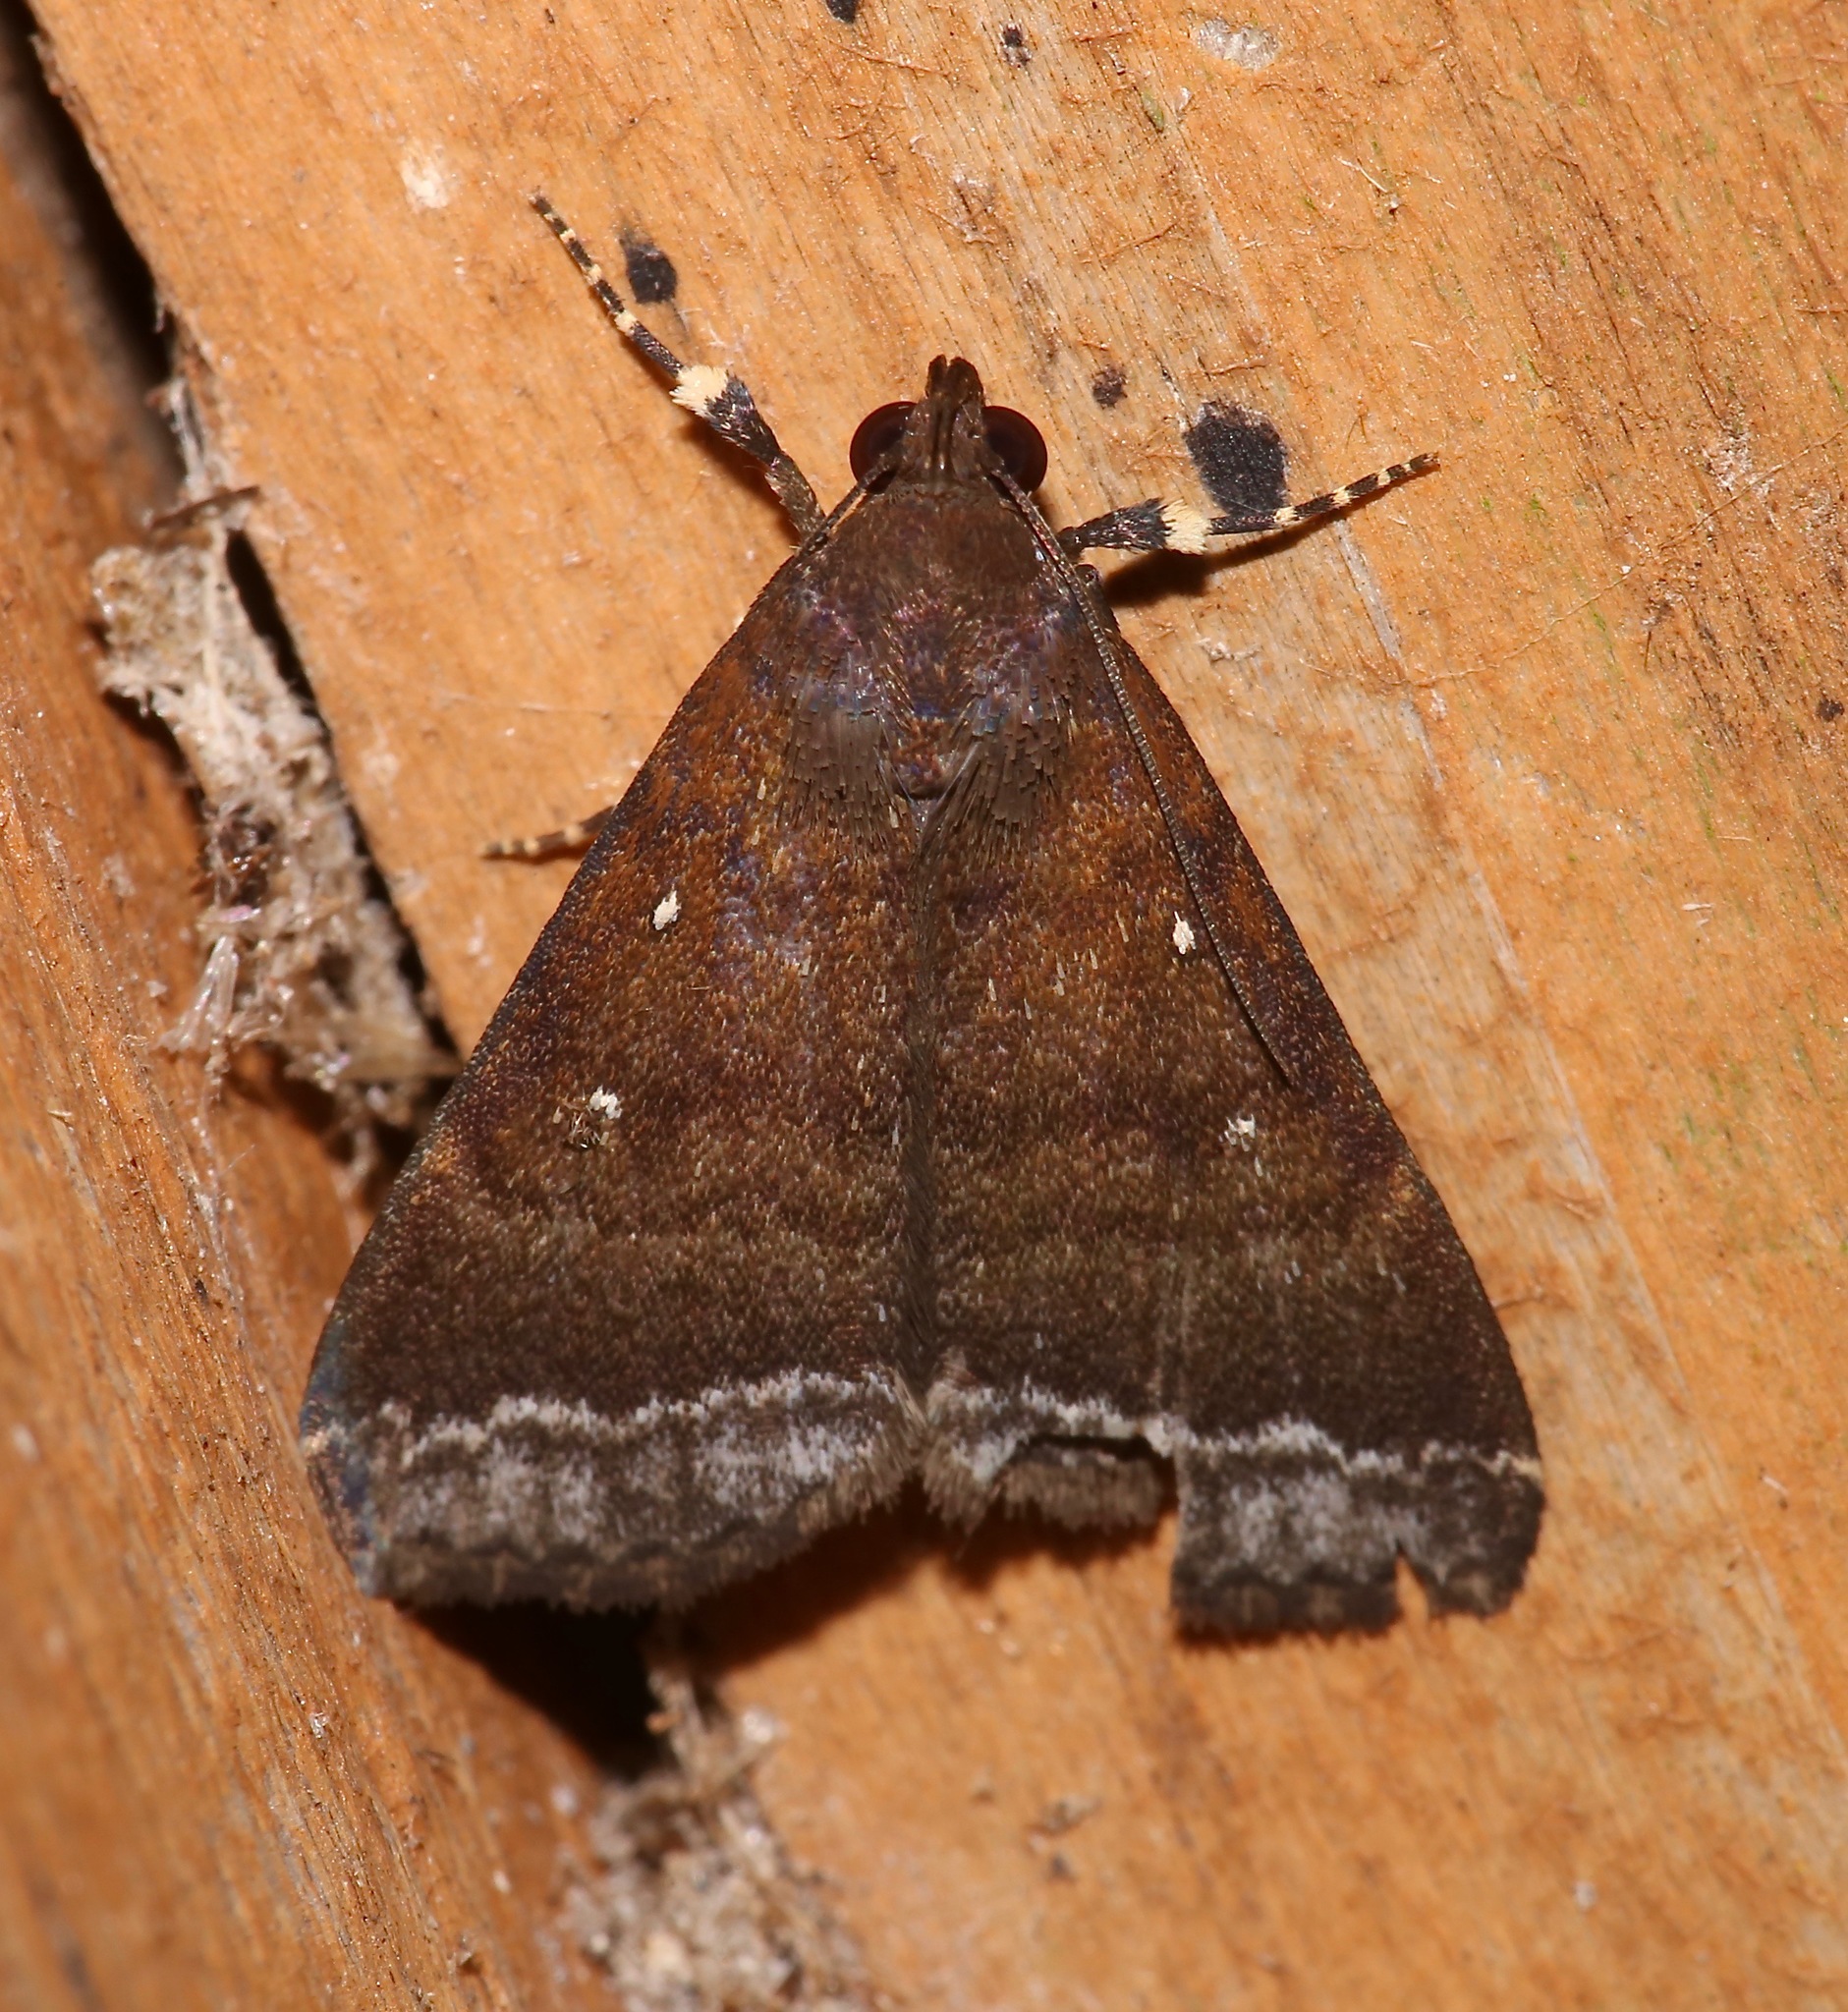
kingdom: Animalia
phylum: Arthropoda
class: Insecta
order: Lepidoptera
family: Erebidae
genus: Physula
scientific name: Physula albipunctilla
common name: Cutworm moth
